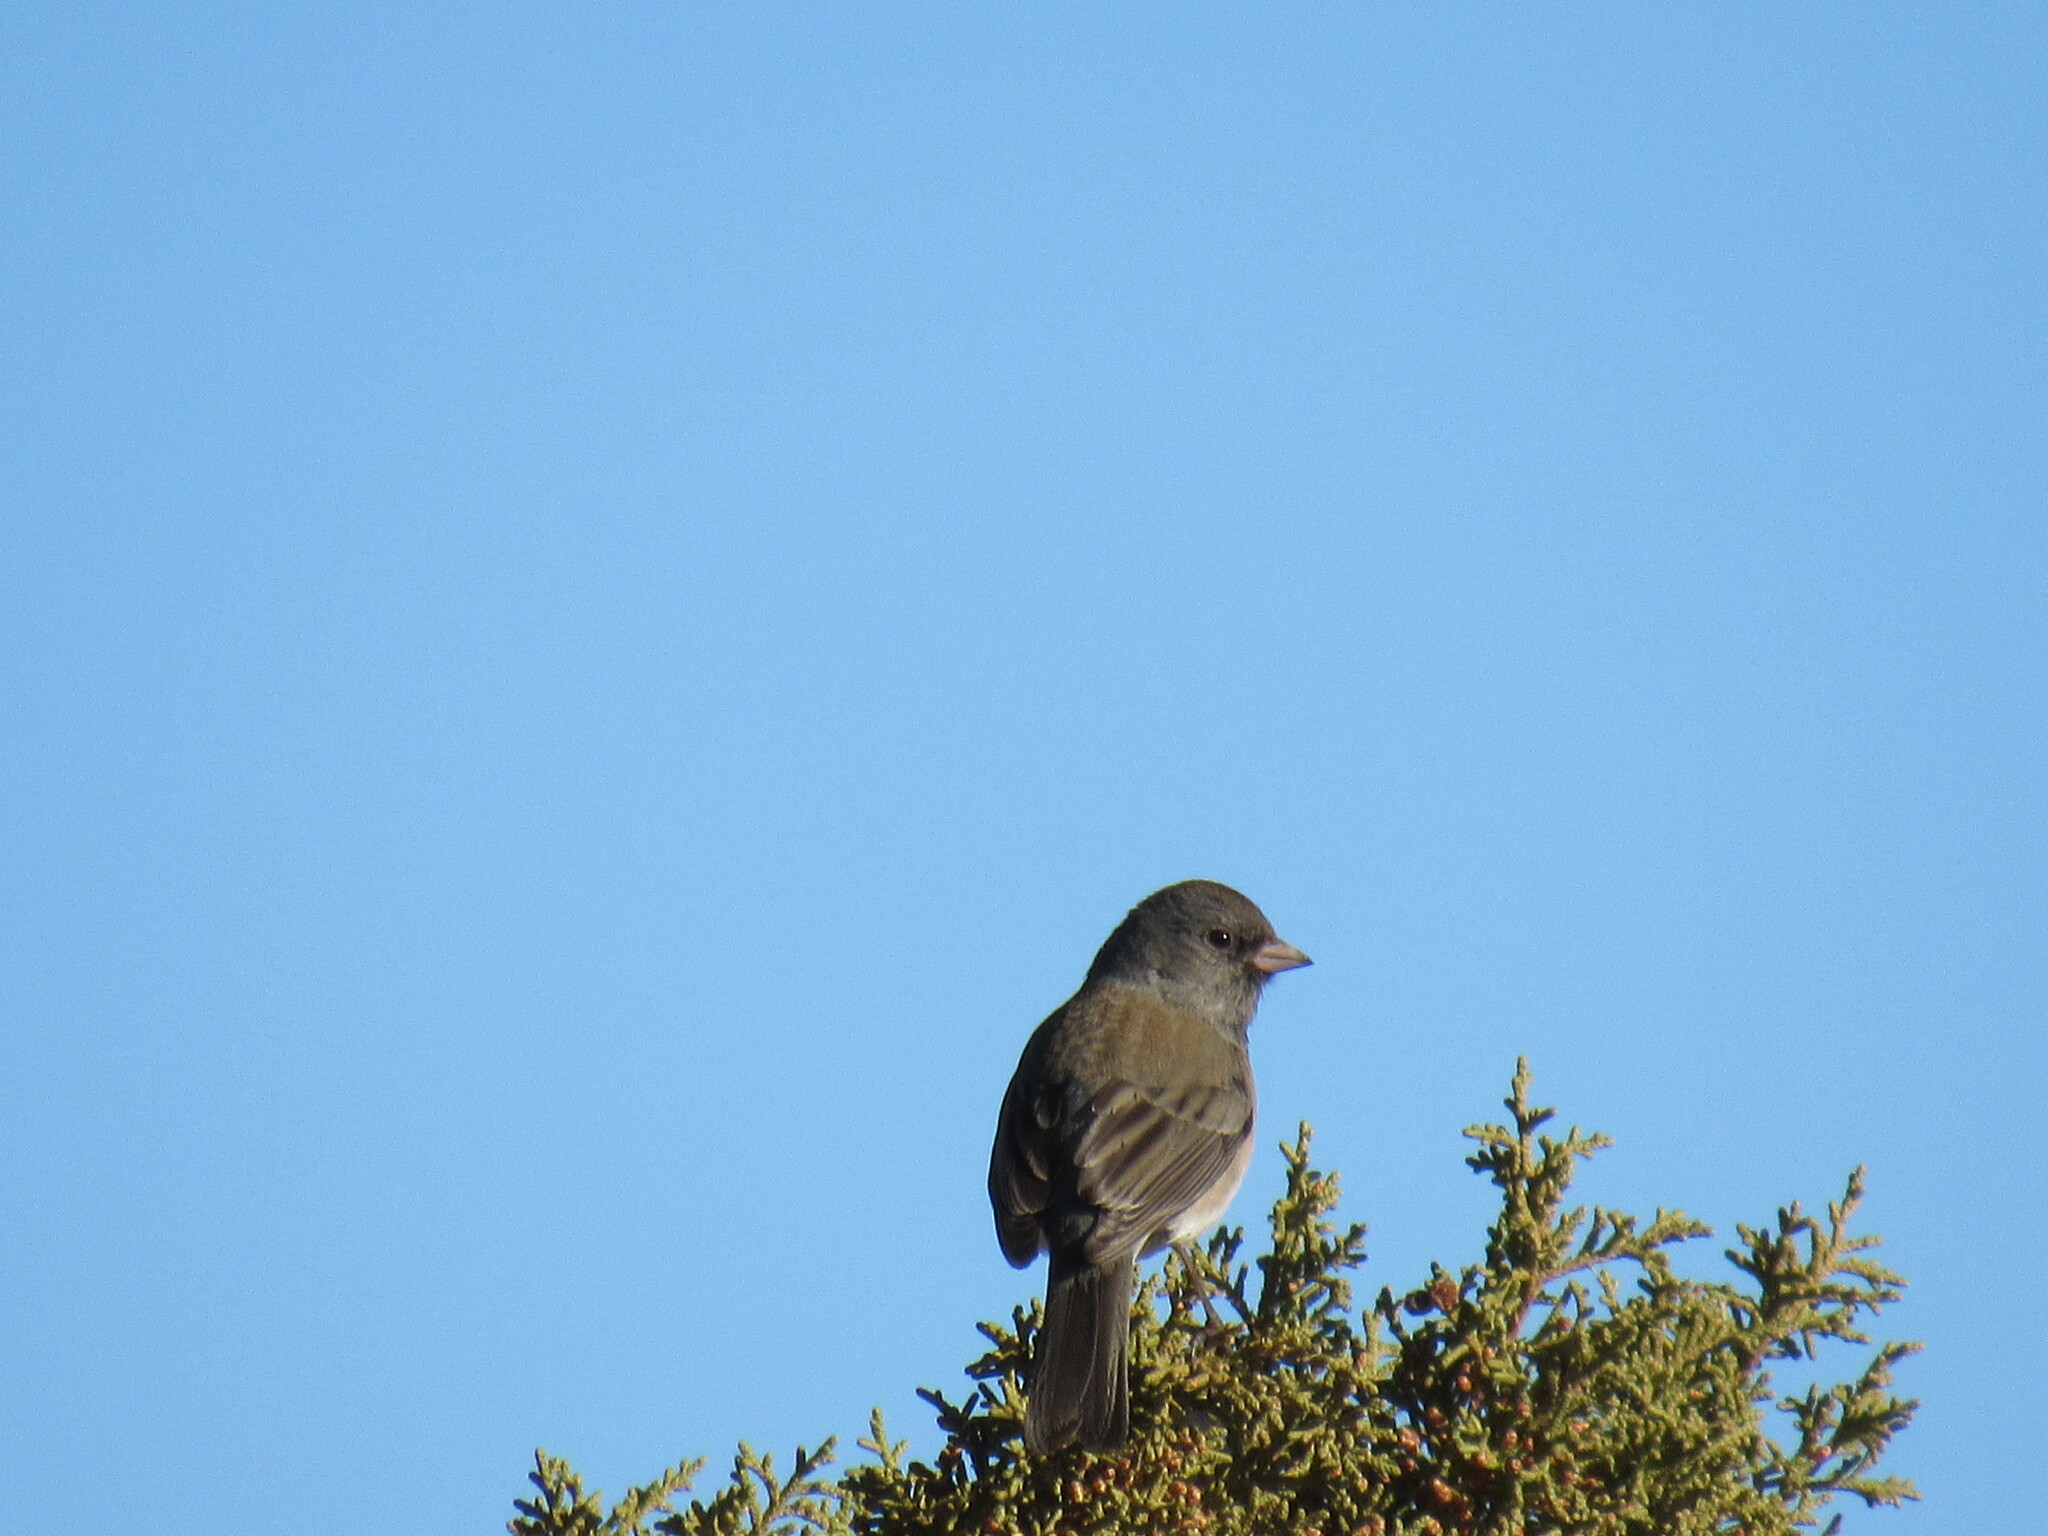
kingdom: Animalia
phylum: Chordata
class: Aves
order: Passeriformes
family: Passerellidae
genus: Junco
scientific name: Junco hyemalis
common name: Dark-eyed junco
